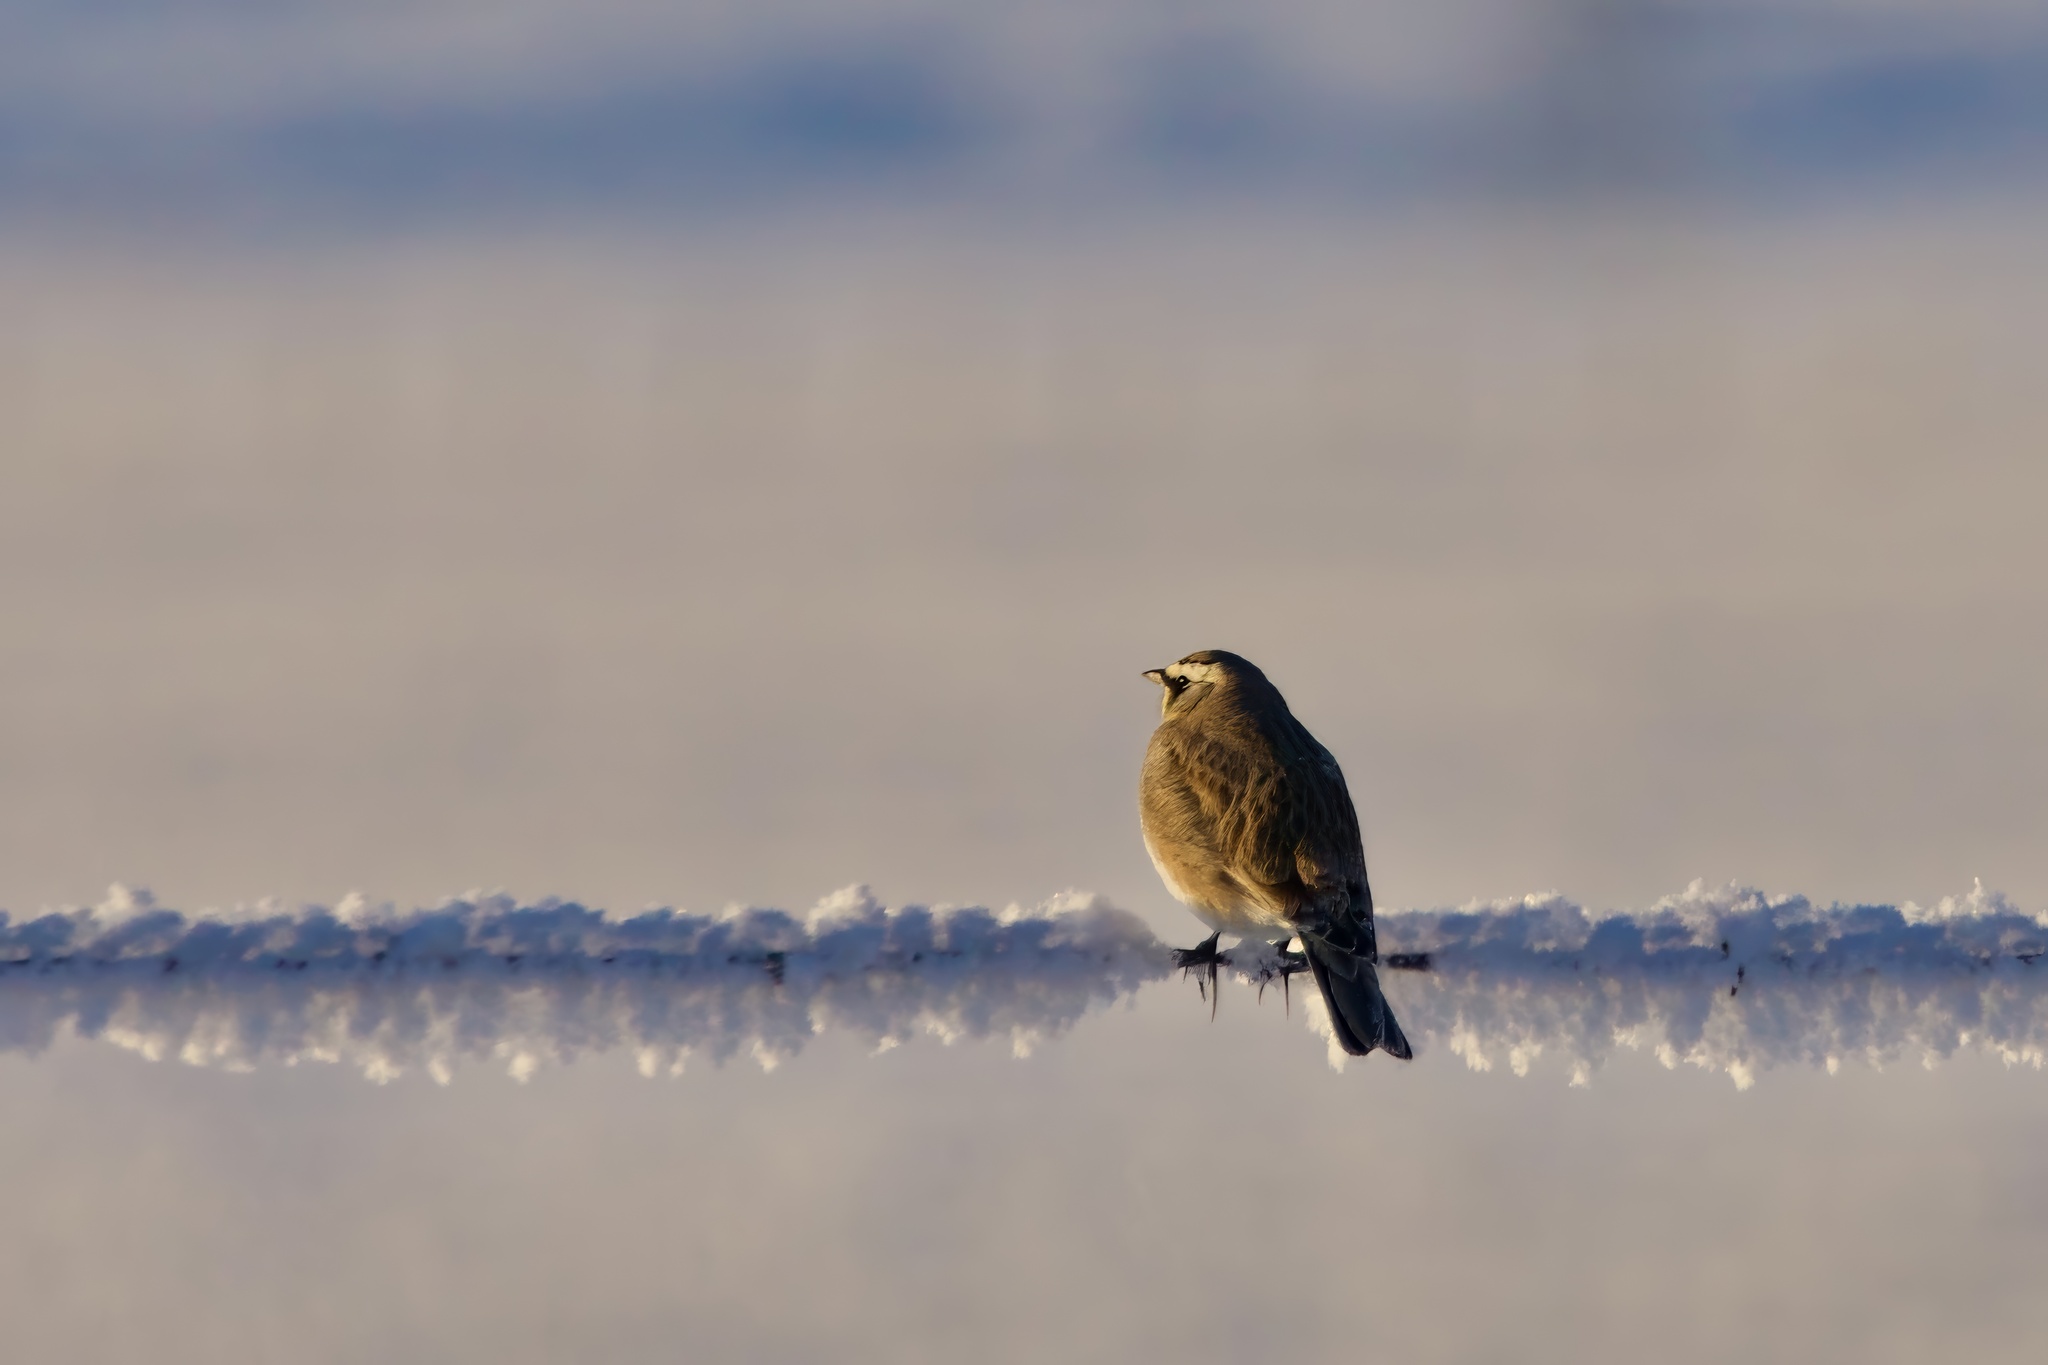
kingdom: Animalia
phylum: Chordata
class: Aves
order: Passeriformes
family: Alaudidae
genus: Eremophila
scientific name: Eremophila alpestris
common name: Horned lark
